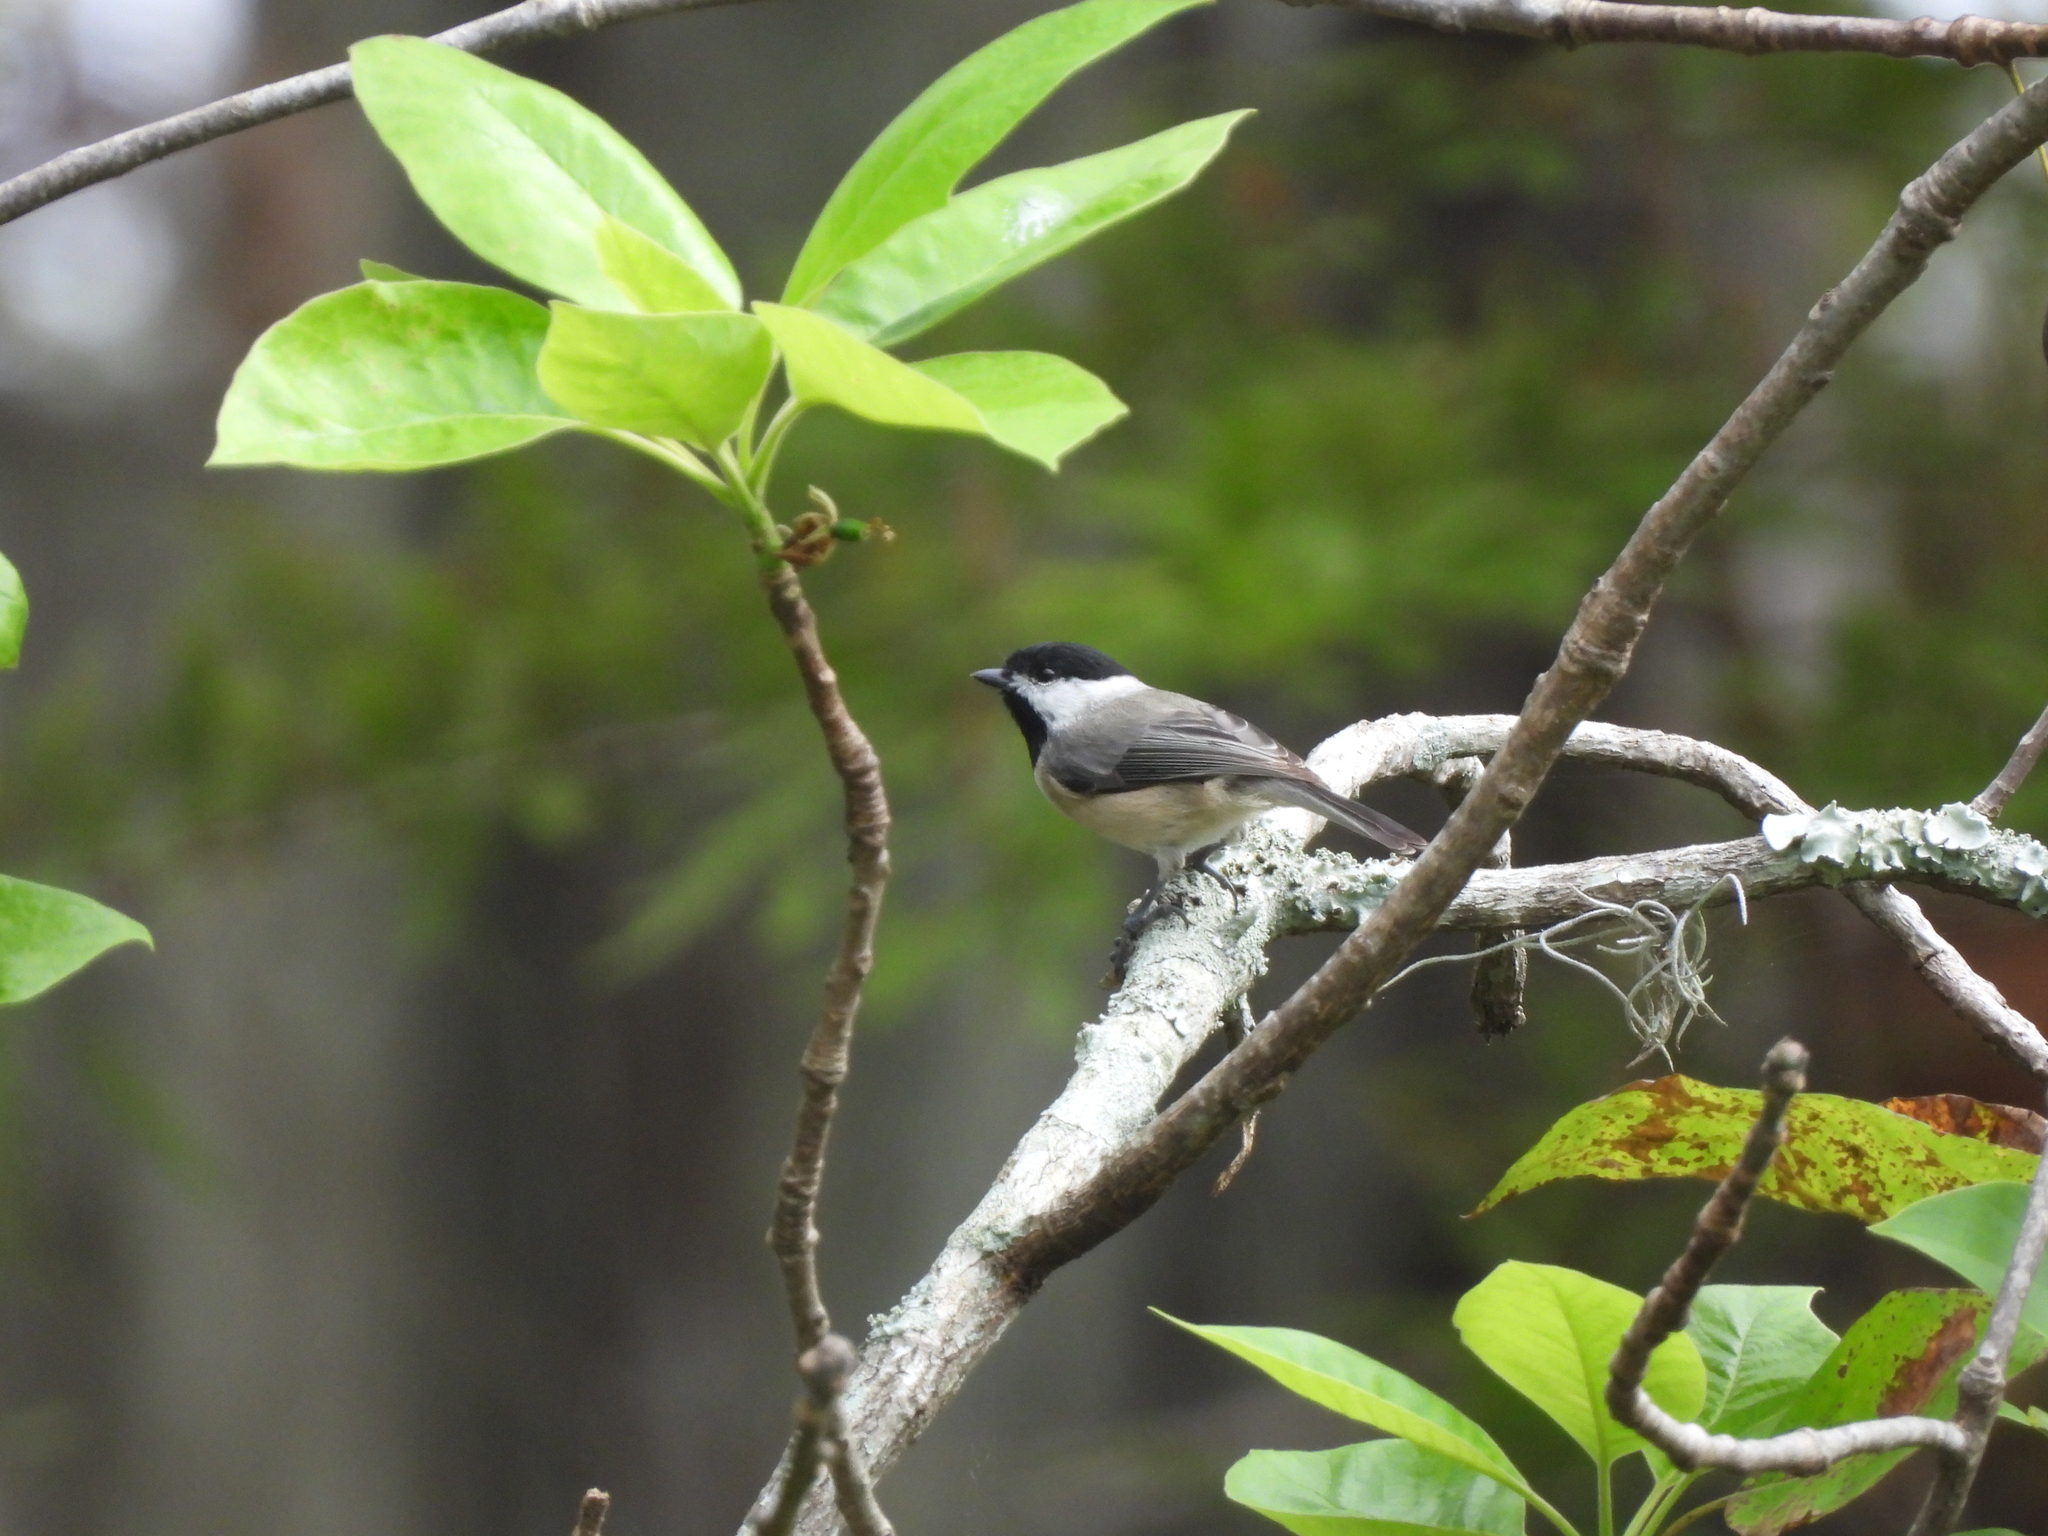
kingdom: Animalia
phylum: Chordata
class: Aves
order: Passeriformes
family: Paridae
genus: Poecile
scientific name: Poecile carolinensis
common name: Carolina chickadee
